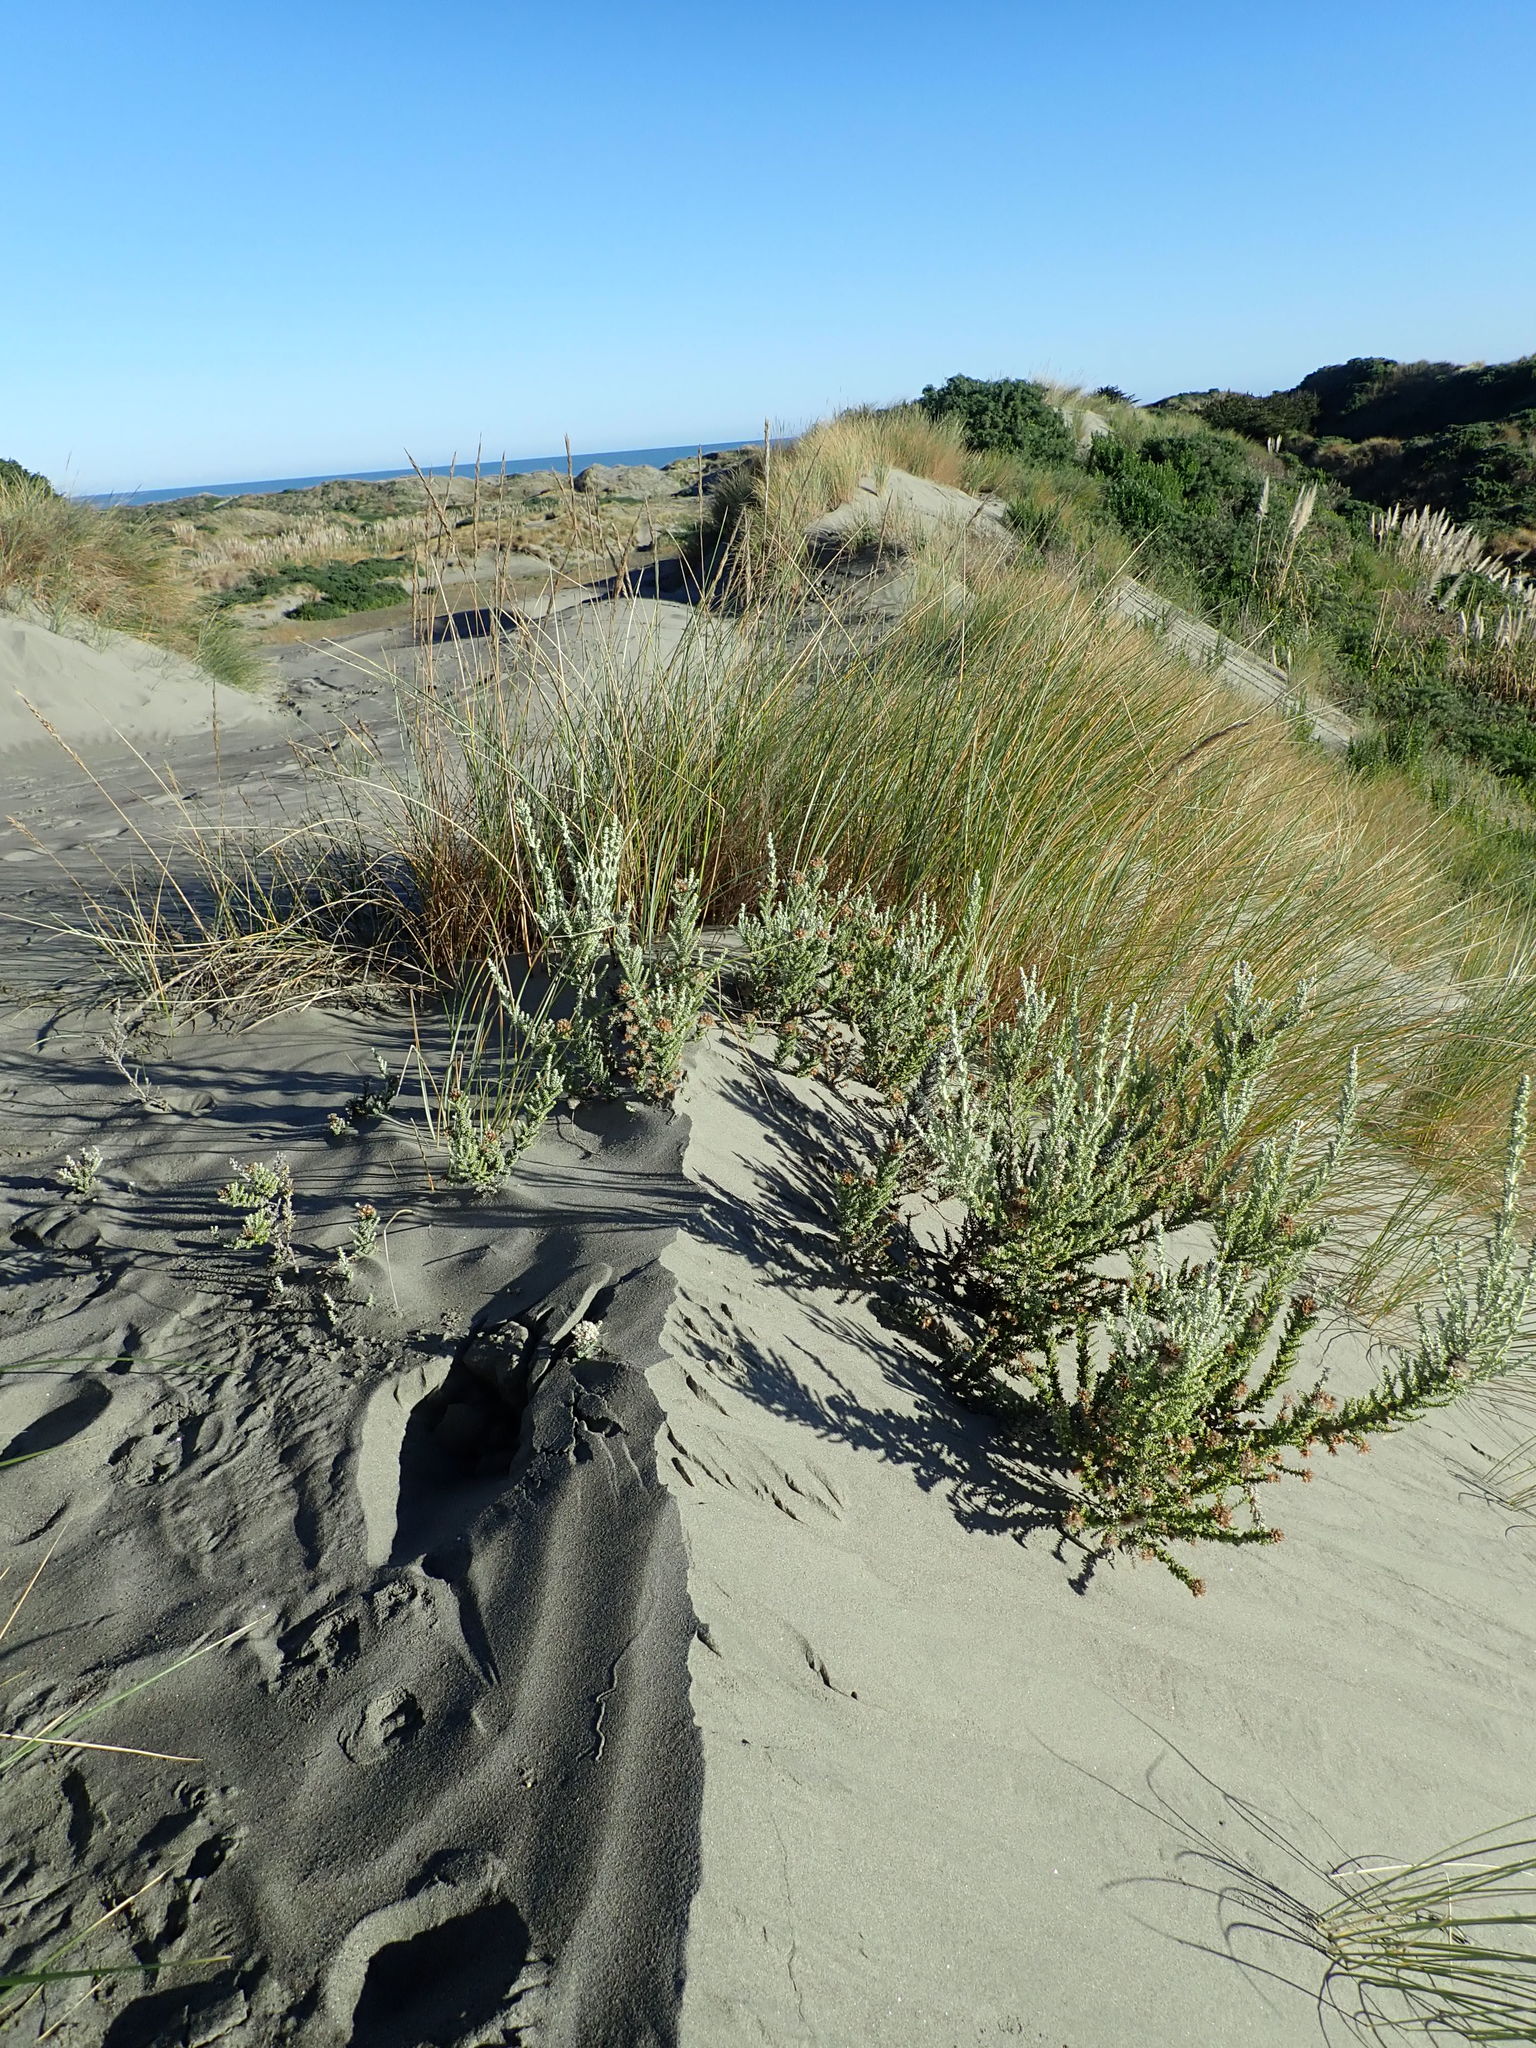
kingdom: Plantae
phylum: Tracheophyta
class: Magnoliopsida
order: Asterales
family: Asteraceae
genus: Ozothamnus
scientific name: Ozothamnus leptophyllus
